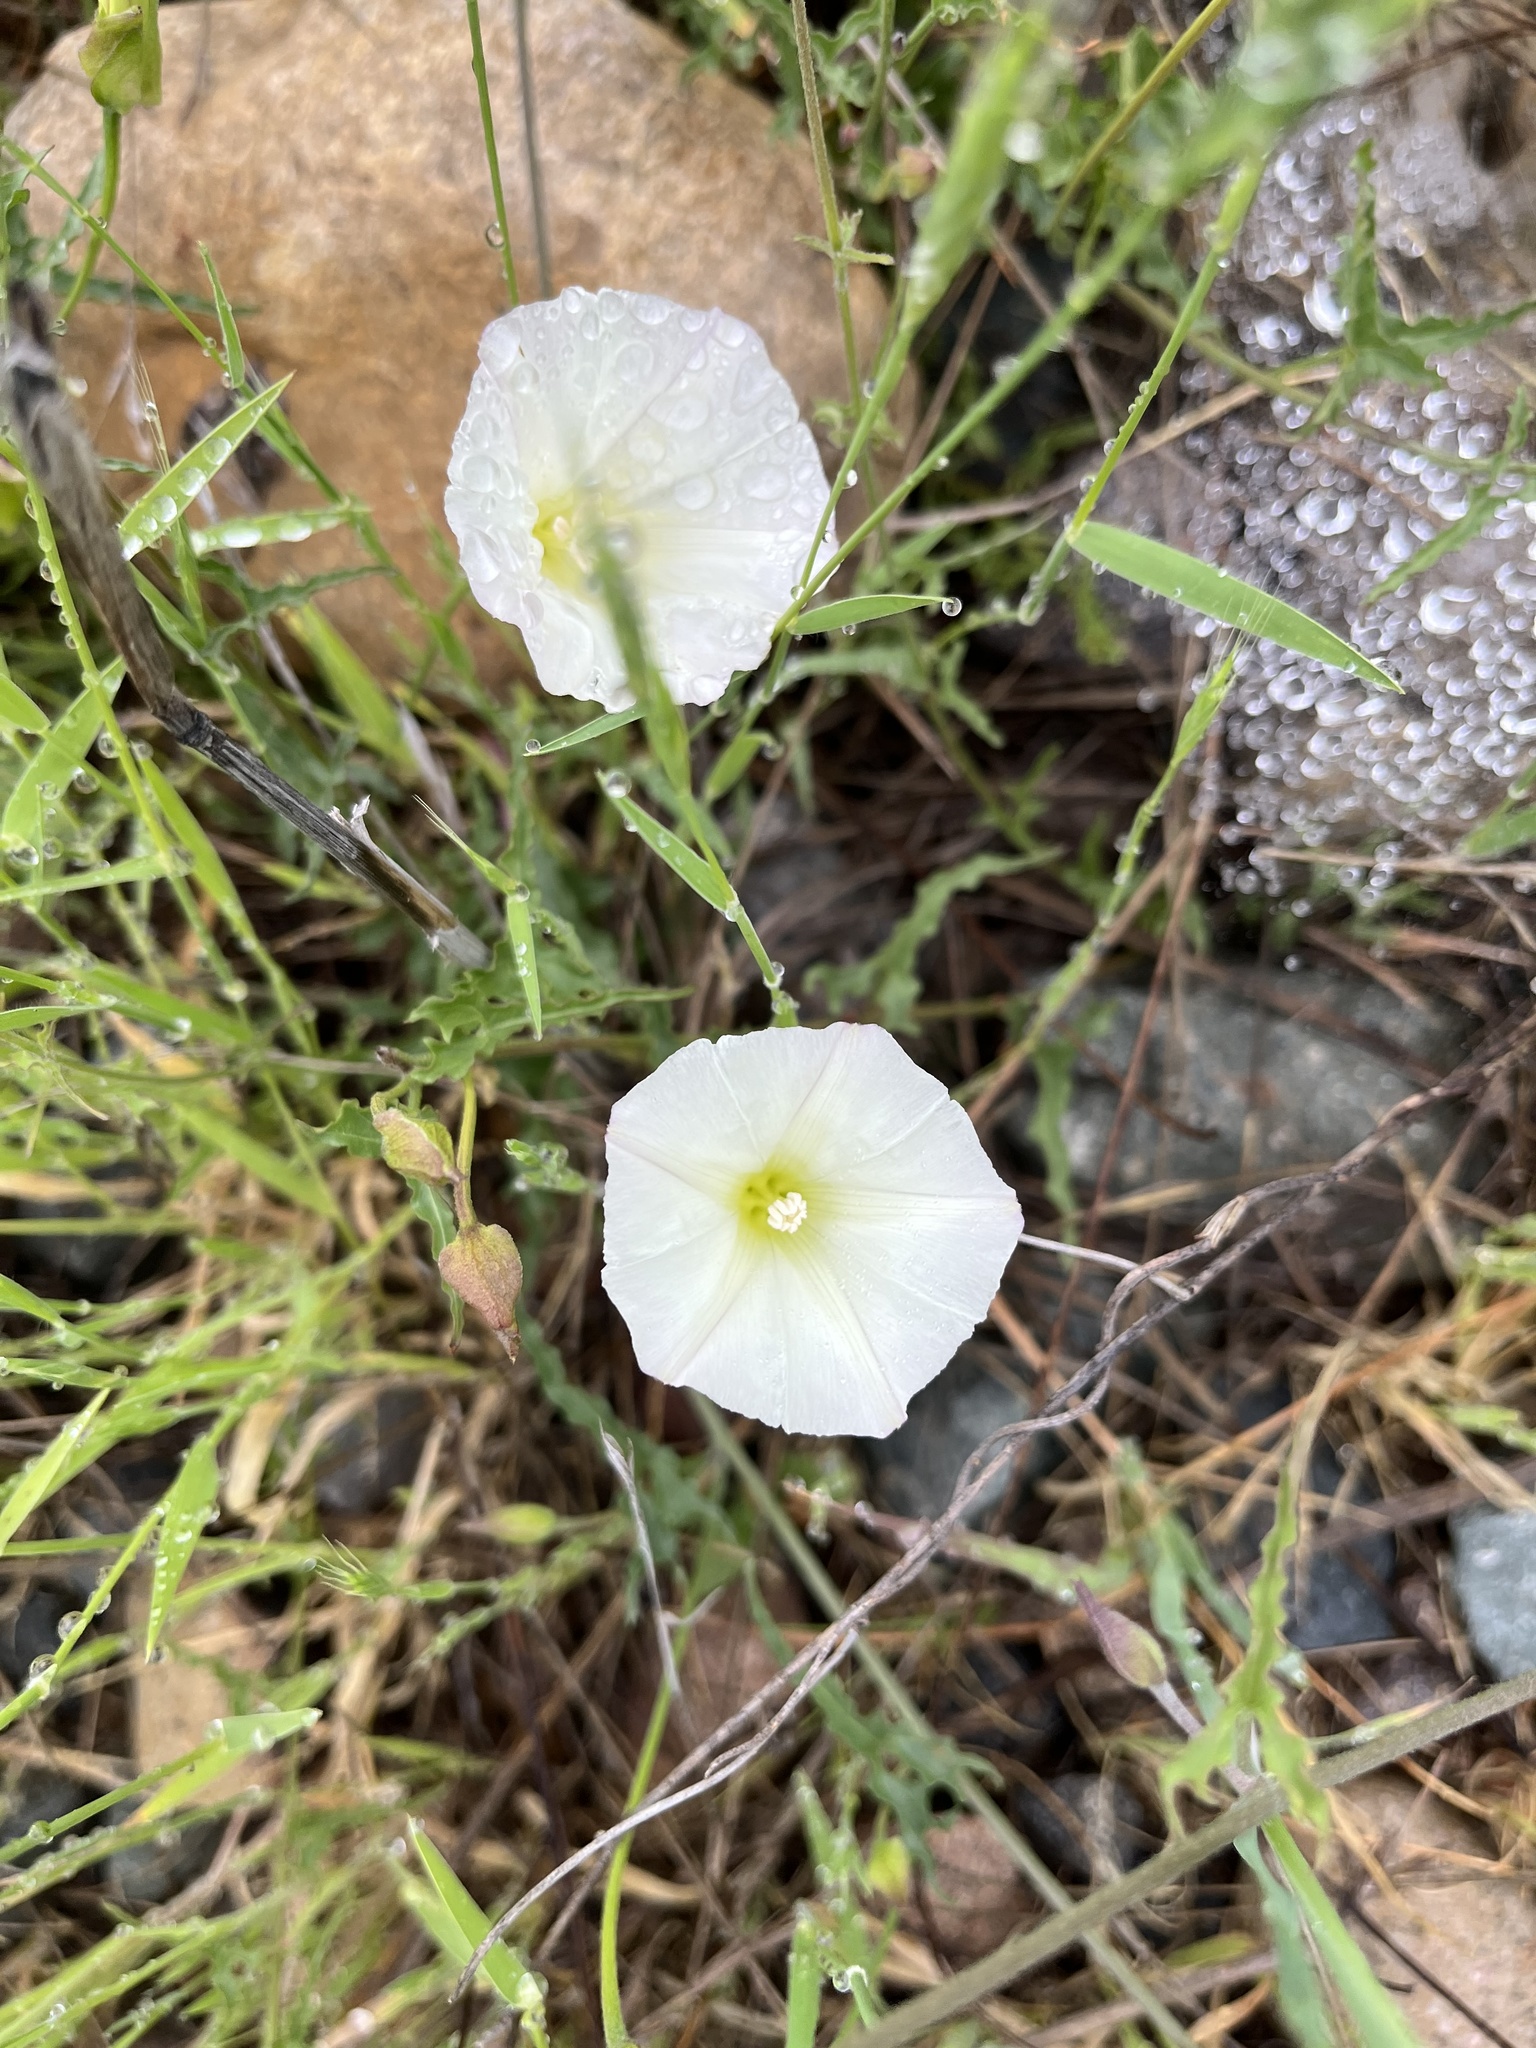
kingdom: Plantae
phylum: Tracheophyta
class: Magnoliopsida
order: Solanales
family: Convolvulaceae
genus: Calystegia
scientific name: Calystegia macrostegia
